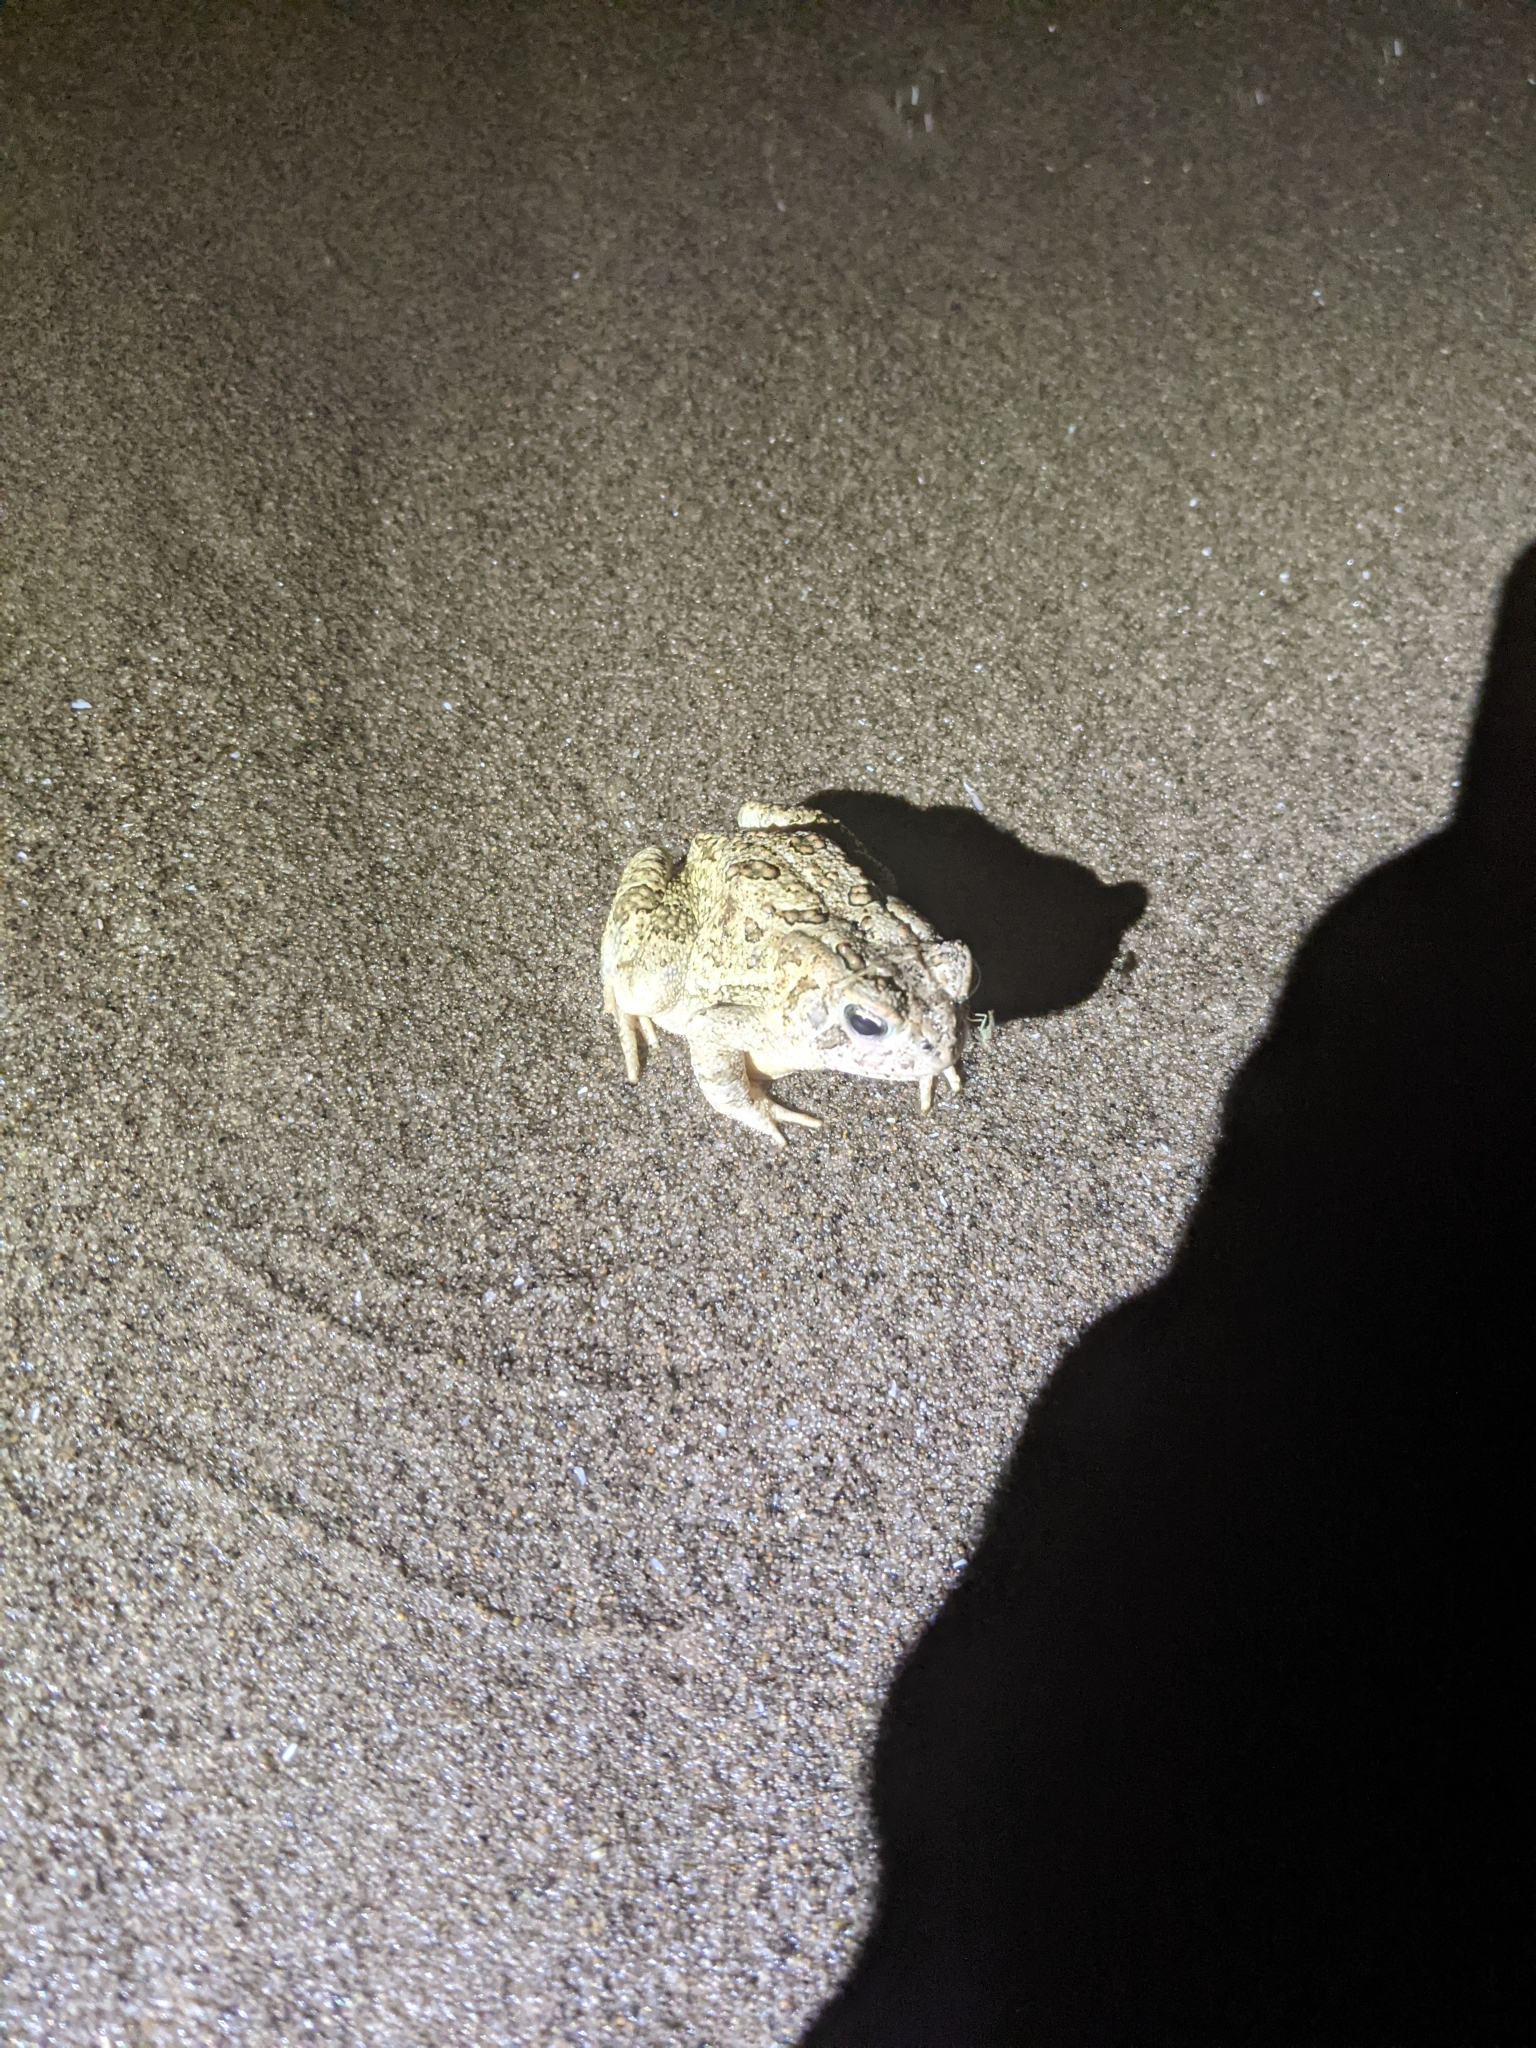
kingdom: Animalia
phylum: Chordata
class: Amphibia
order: Anura
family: Bufonidae
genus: Anaxyrus
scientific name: Anaxyrus fowleri
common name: Fowler's toad
